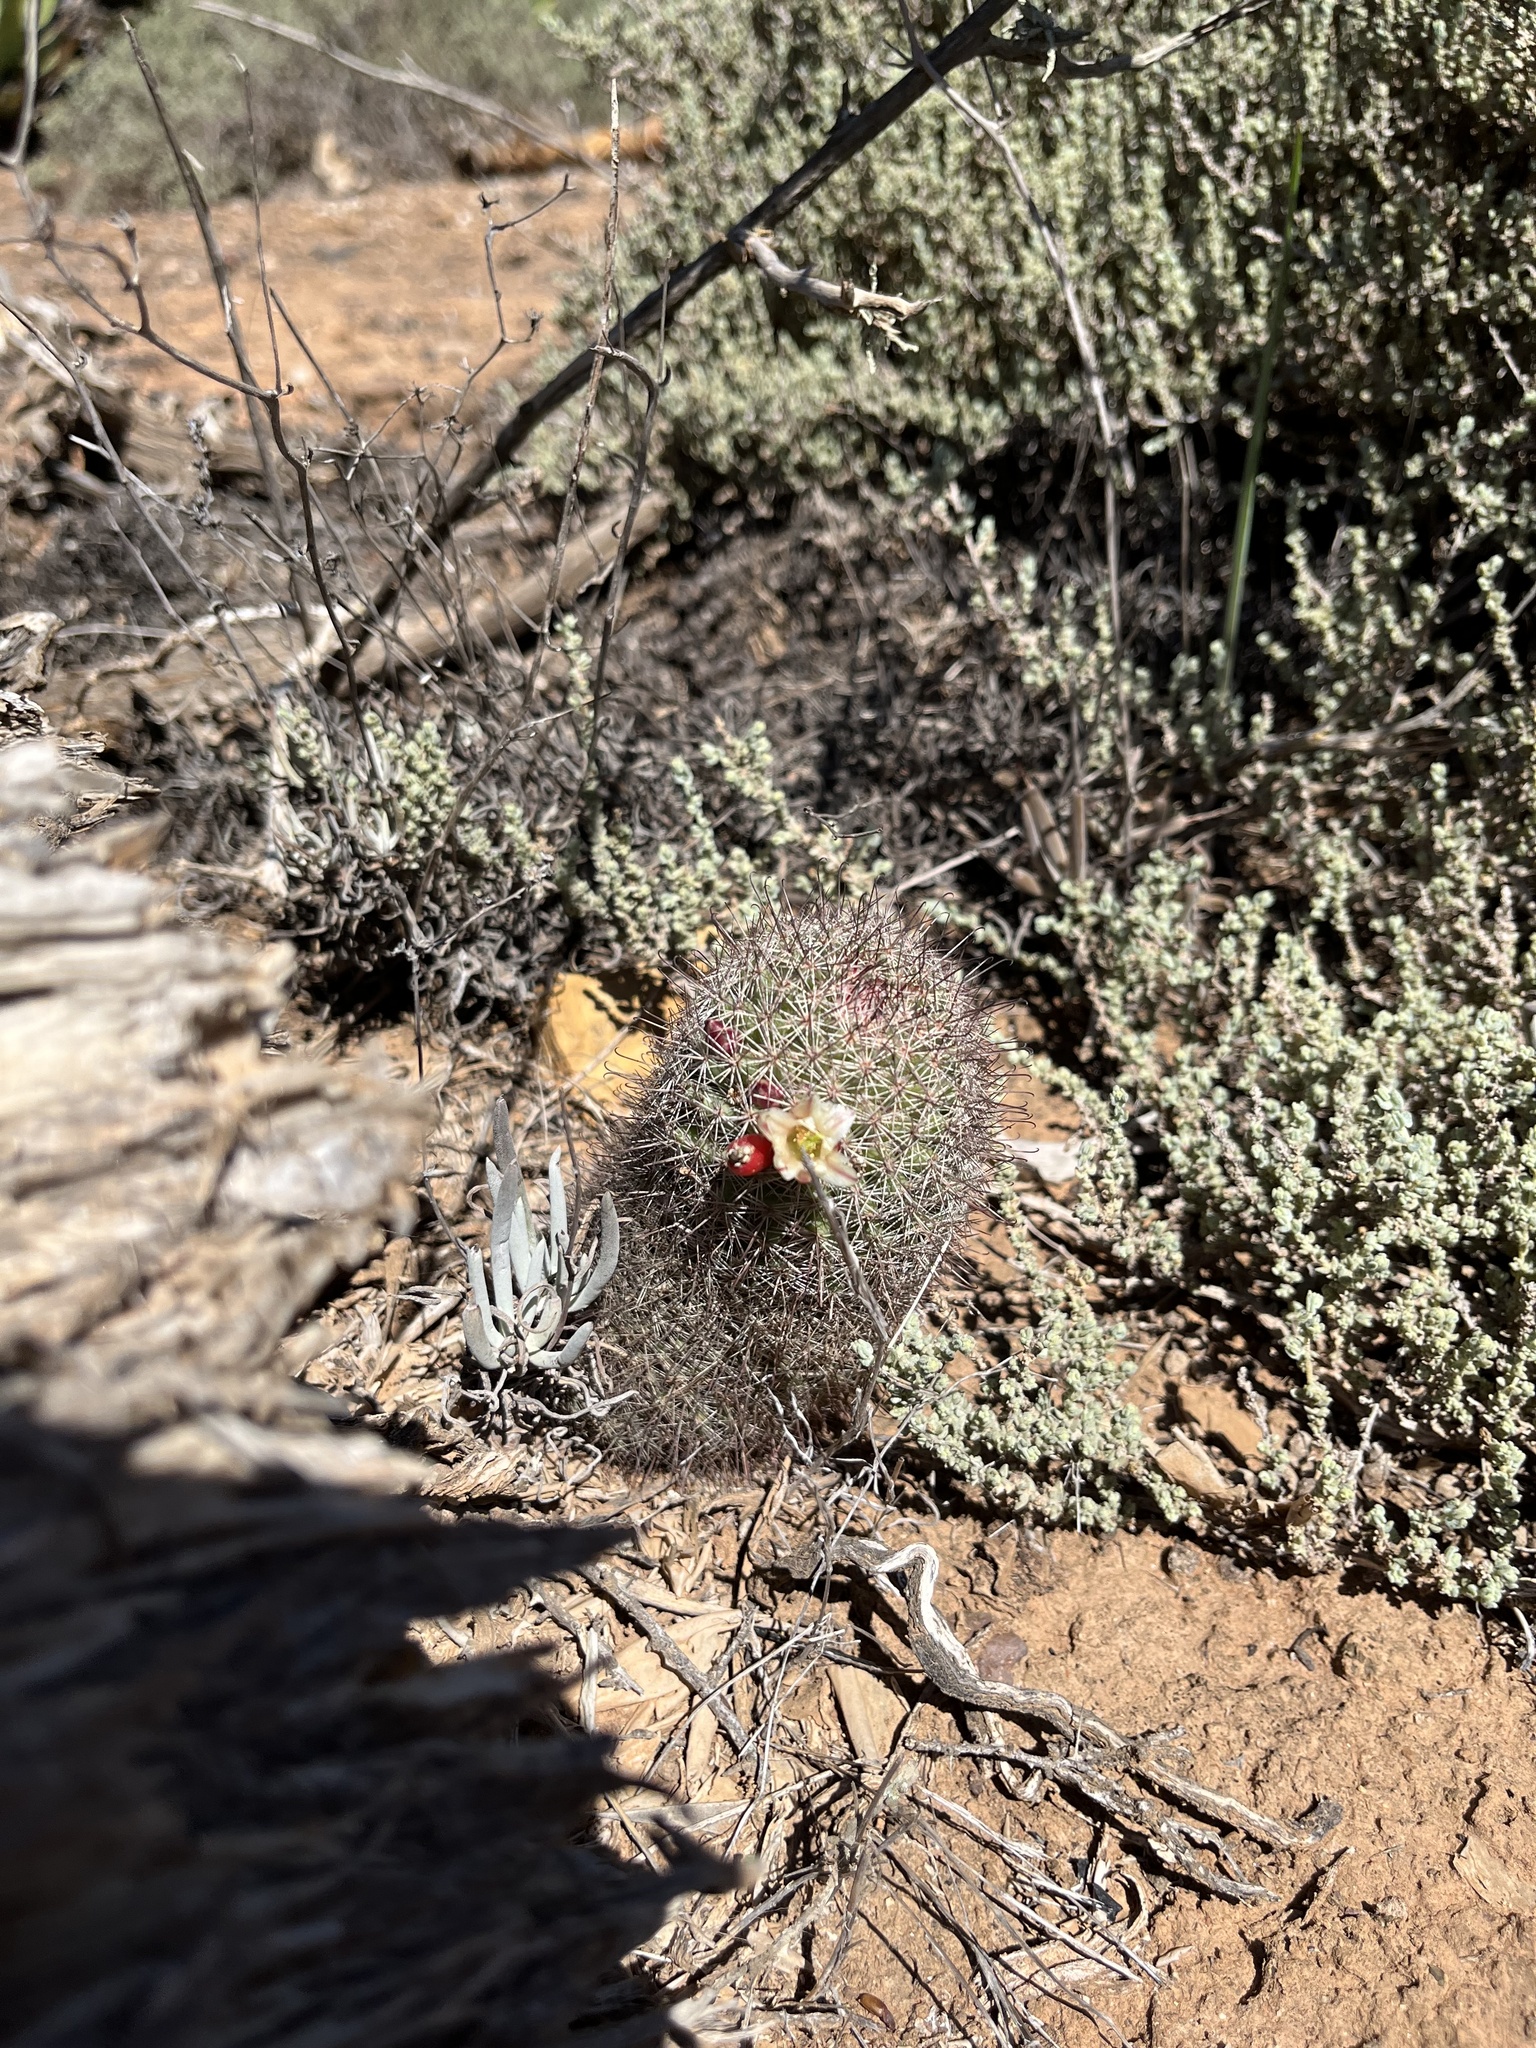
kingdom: Plantae
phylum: Tracheophyta
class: Magnoliopsida
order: Caryophyllales
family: Cactaceae
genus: Cochemiea
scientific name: Cochemiea dioica
